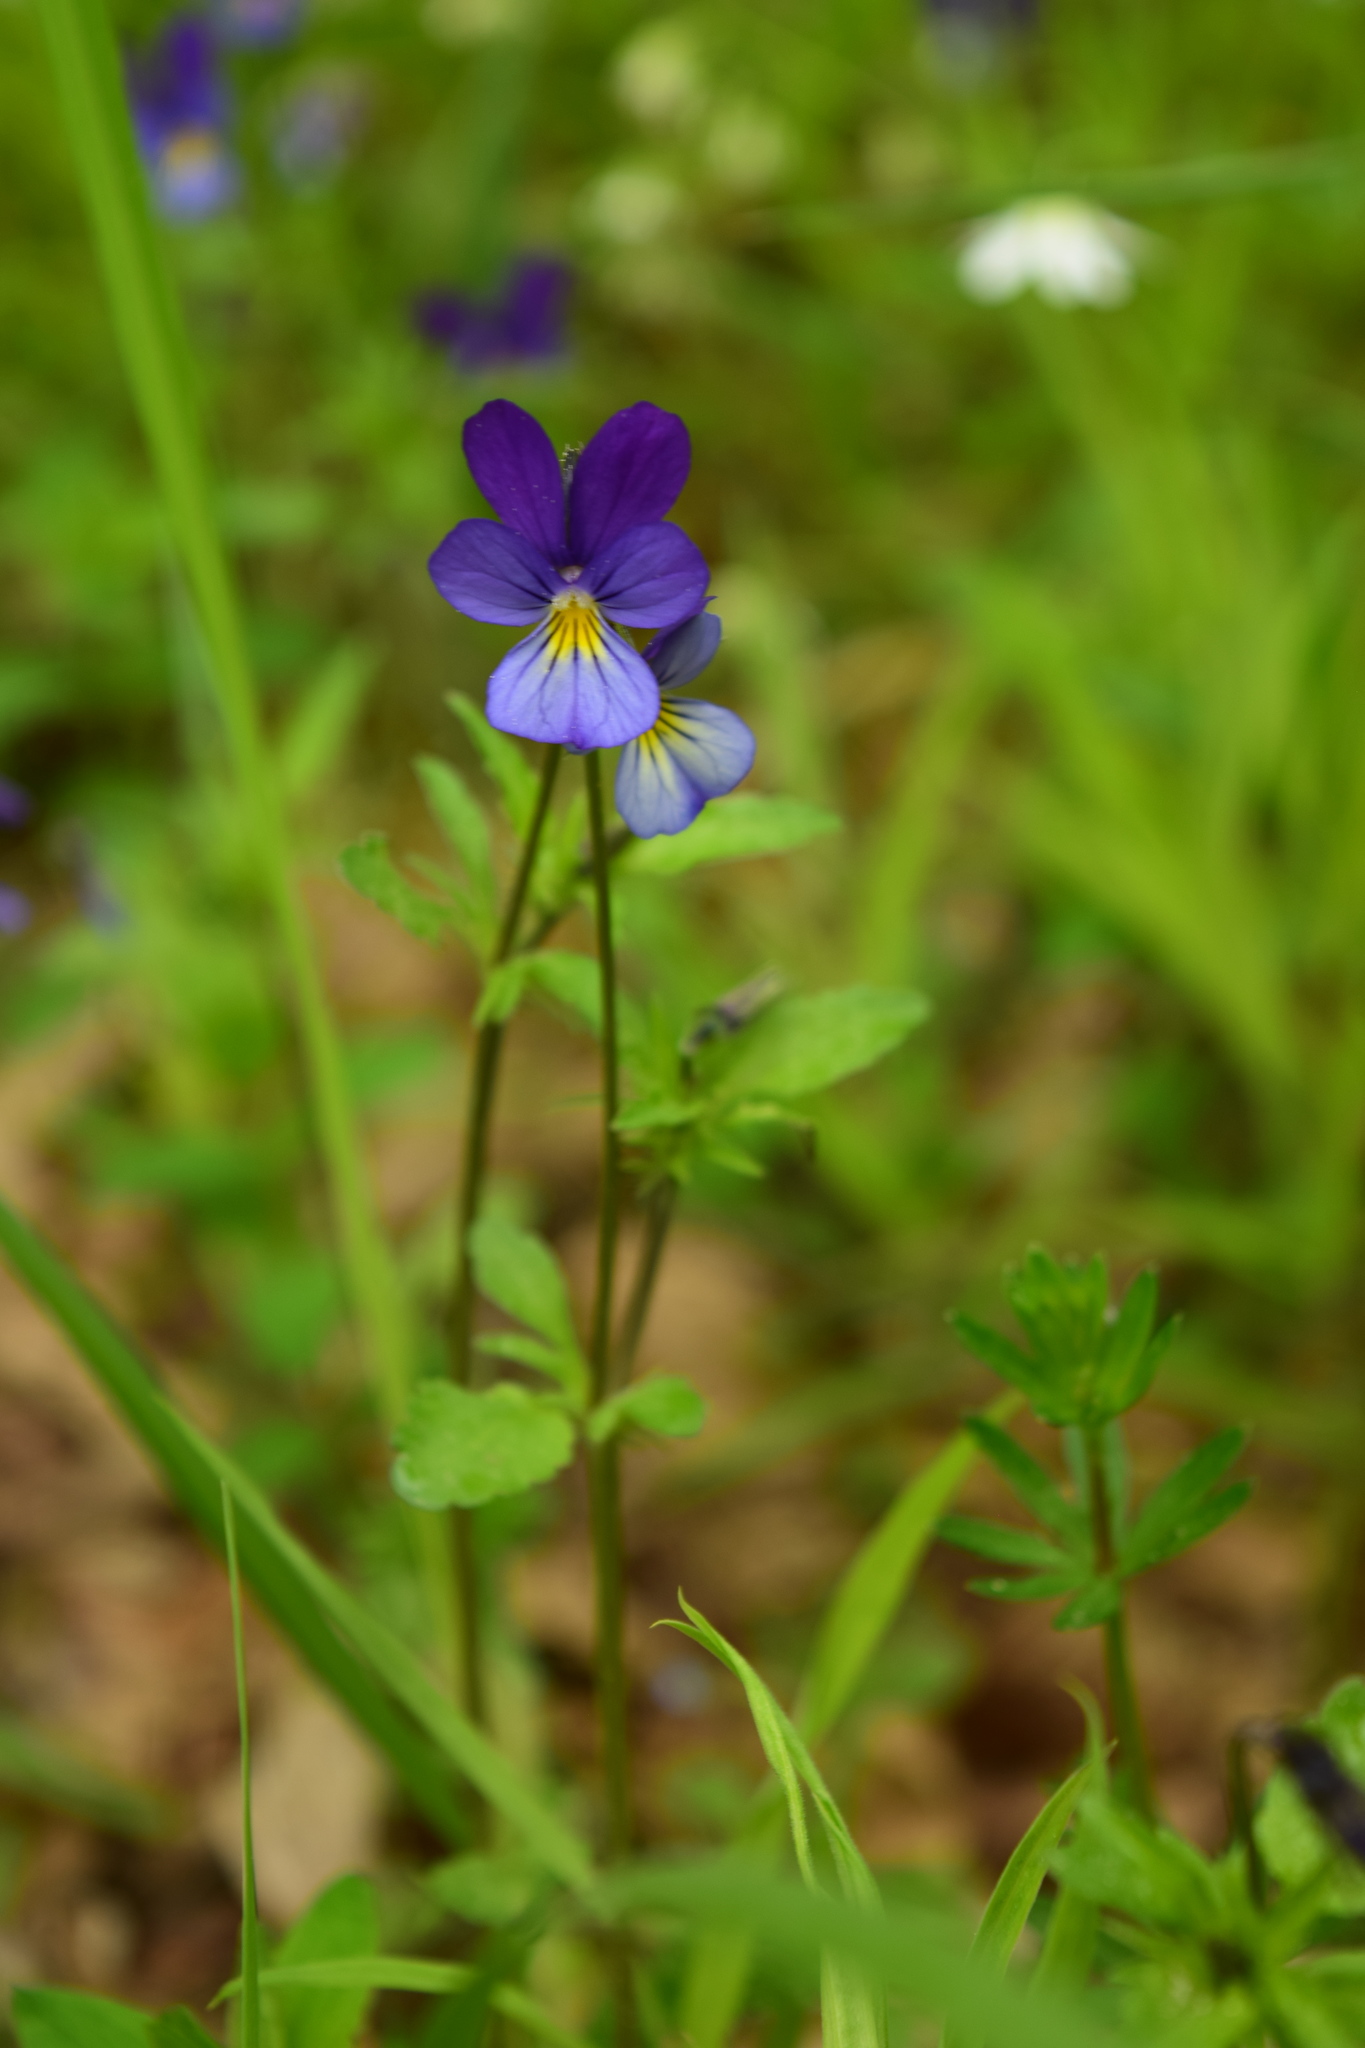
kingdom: Plantae
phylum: Tracheophyta
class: Magnoliopsida
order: Malpighiales
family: Violaceae
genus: Viola
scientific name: Viola tricolor
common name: Pansy
